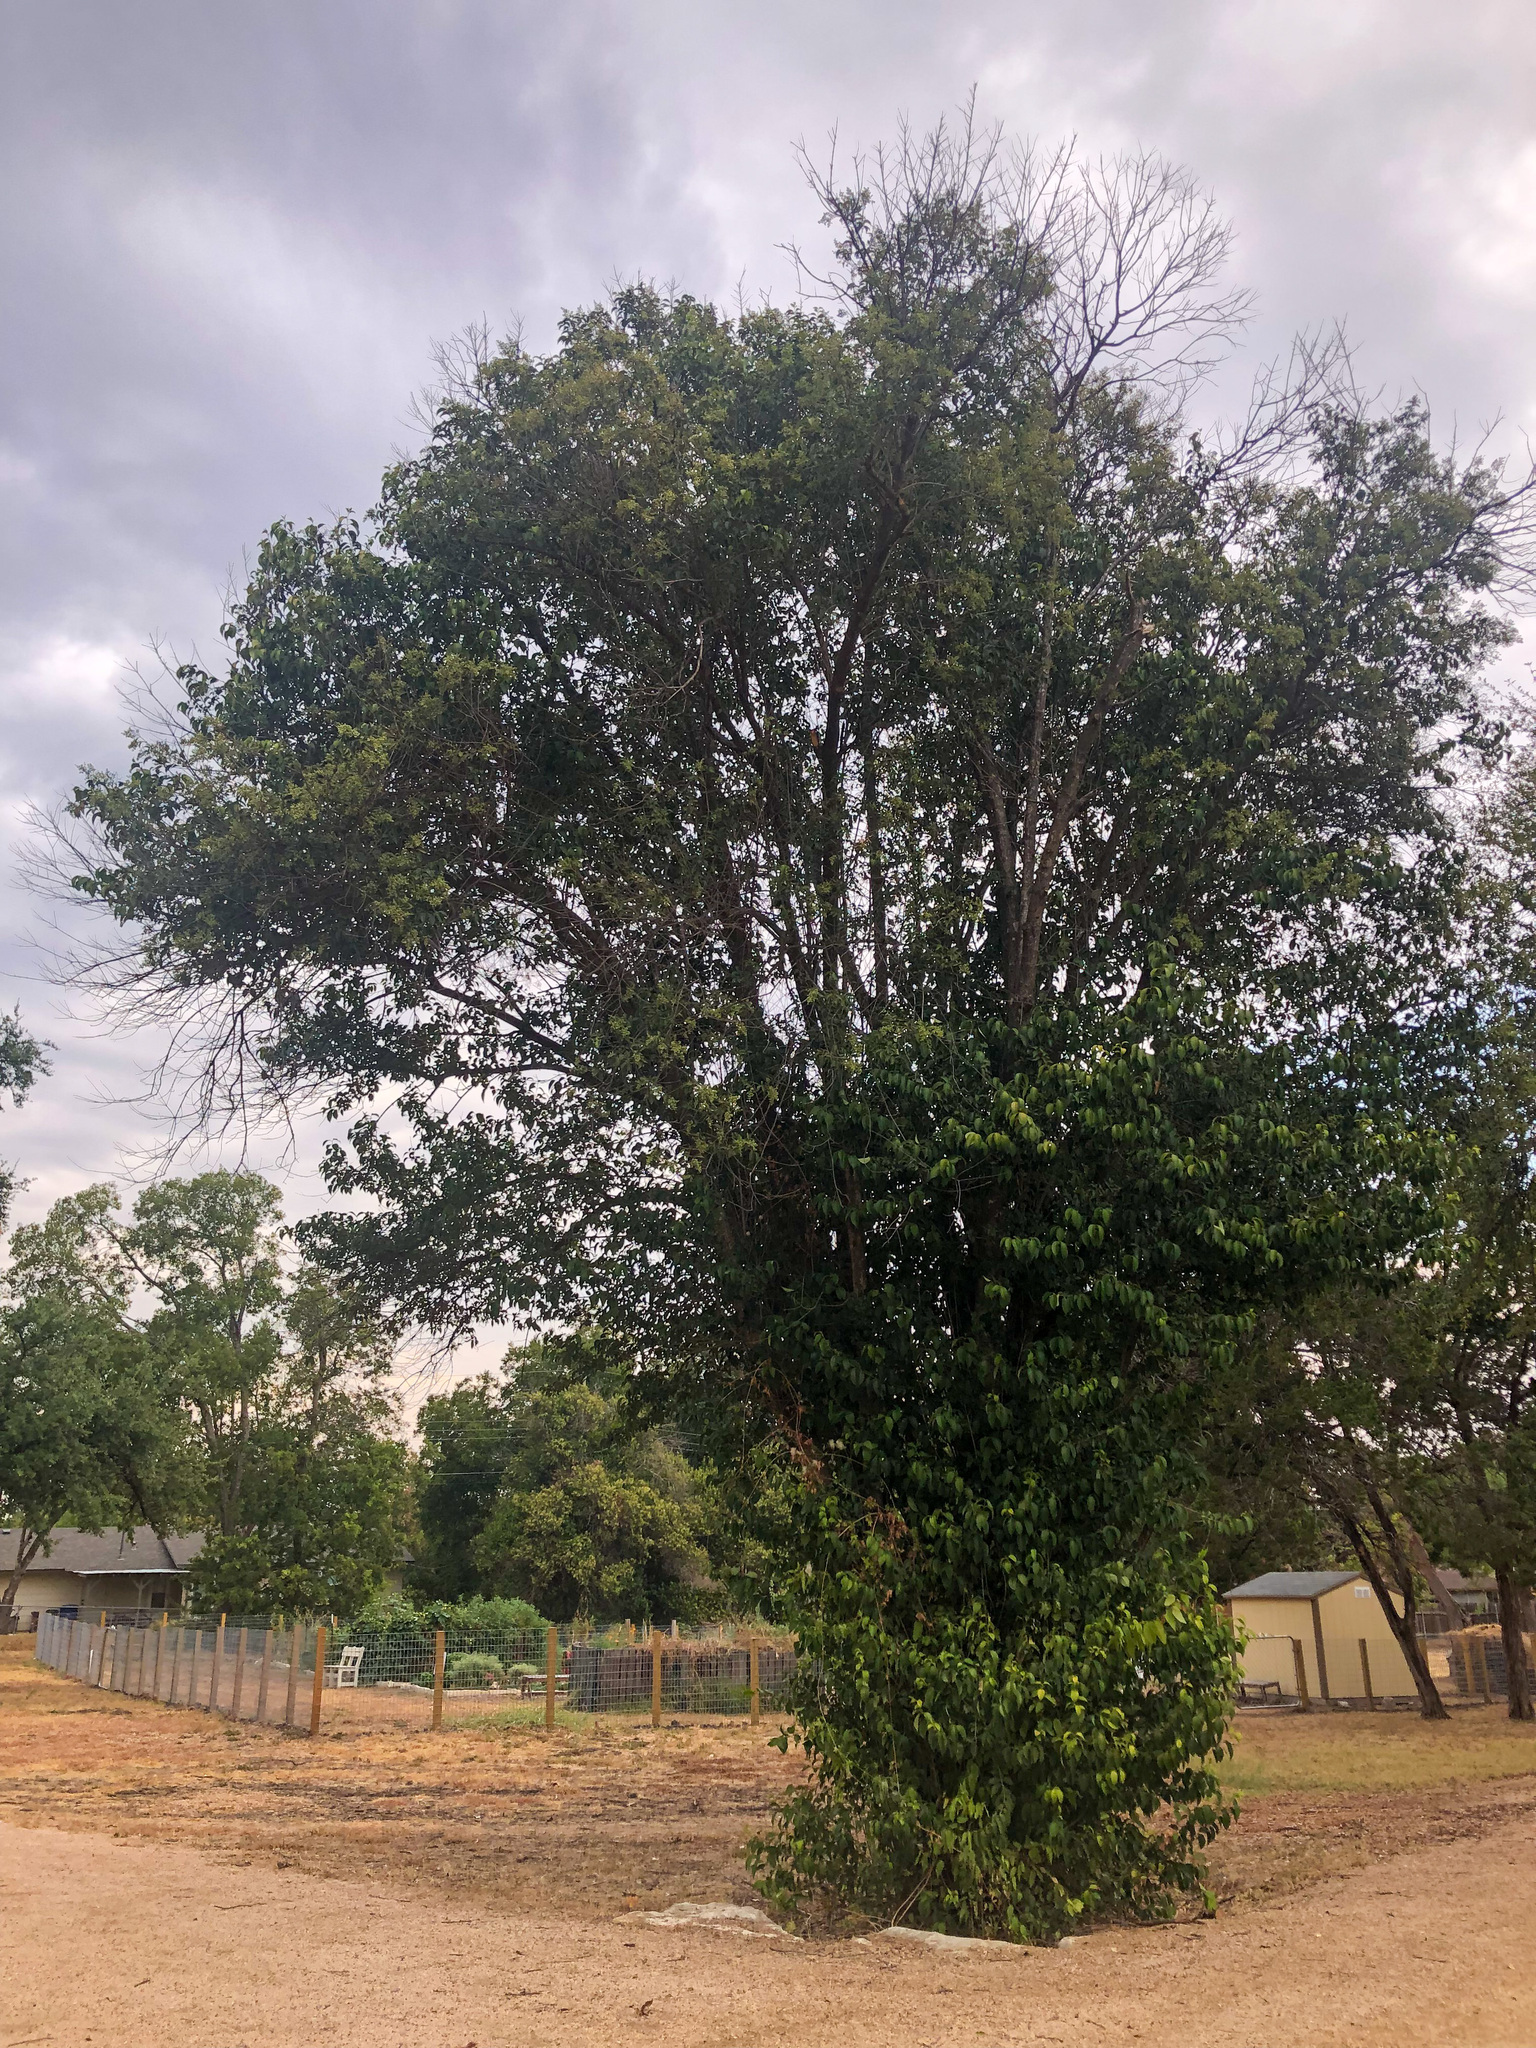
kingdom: Plantae
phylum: Tracheophyta
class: Magnoliopsida
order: Lamiales
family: Oleaceae
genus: Ligustrum
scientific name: Ligustrum lucidum
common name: Glossy privet
